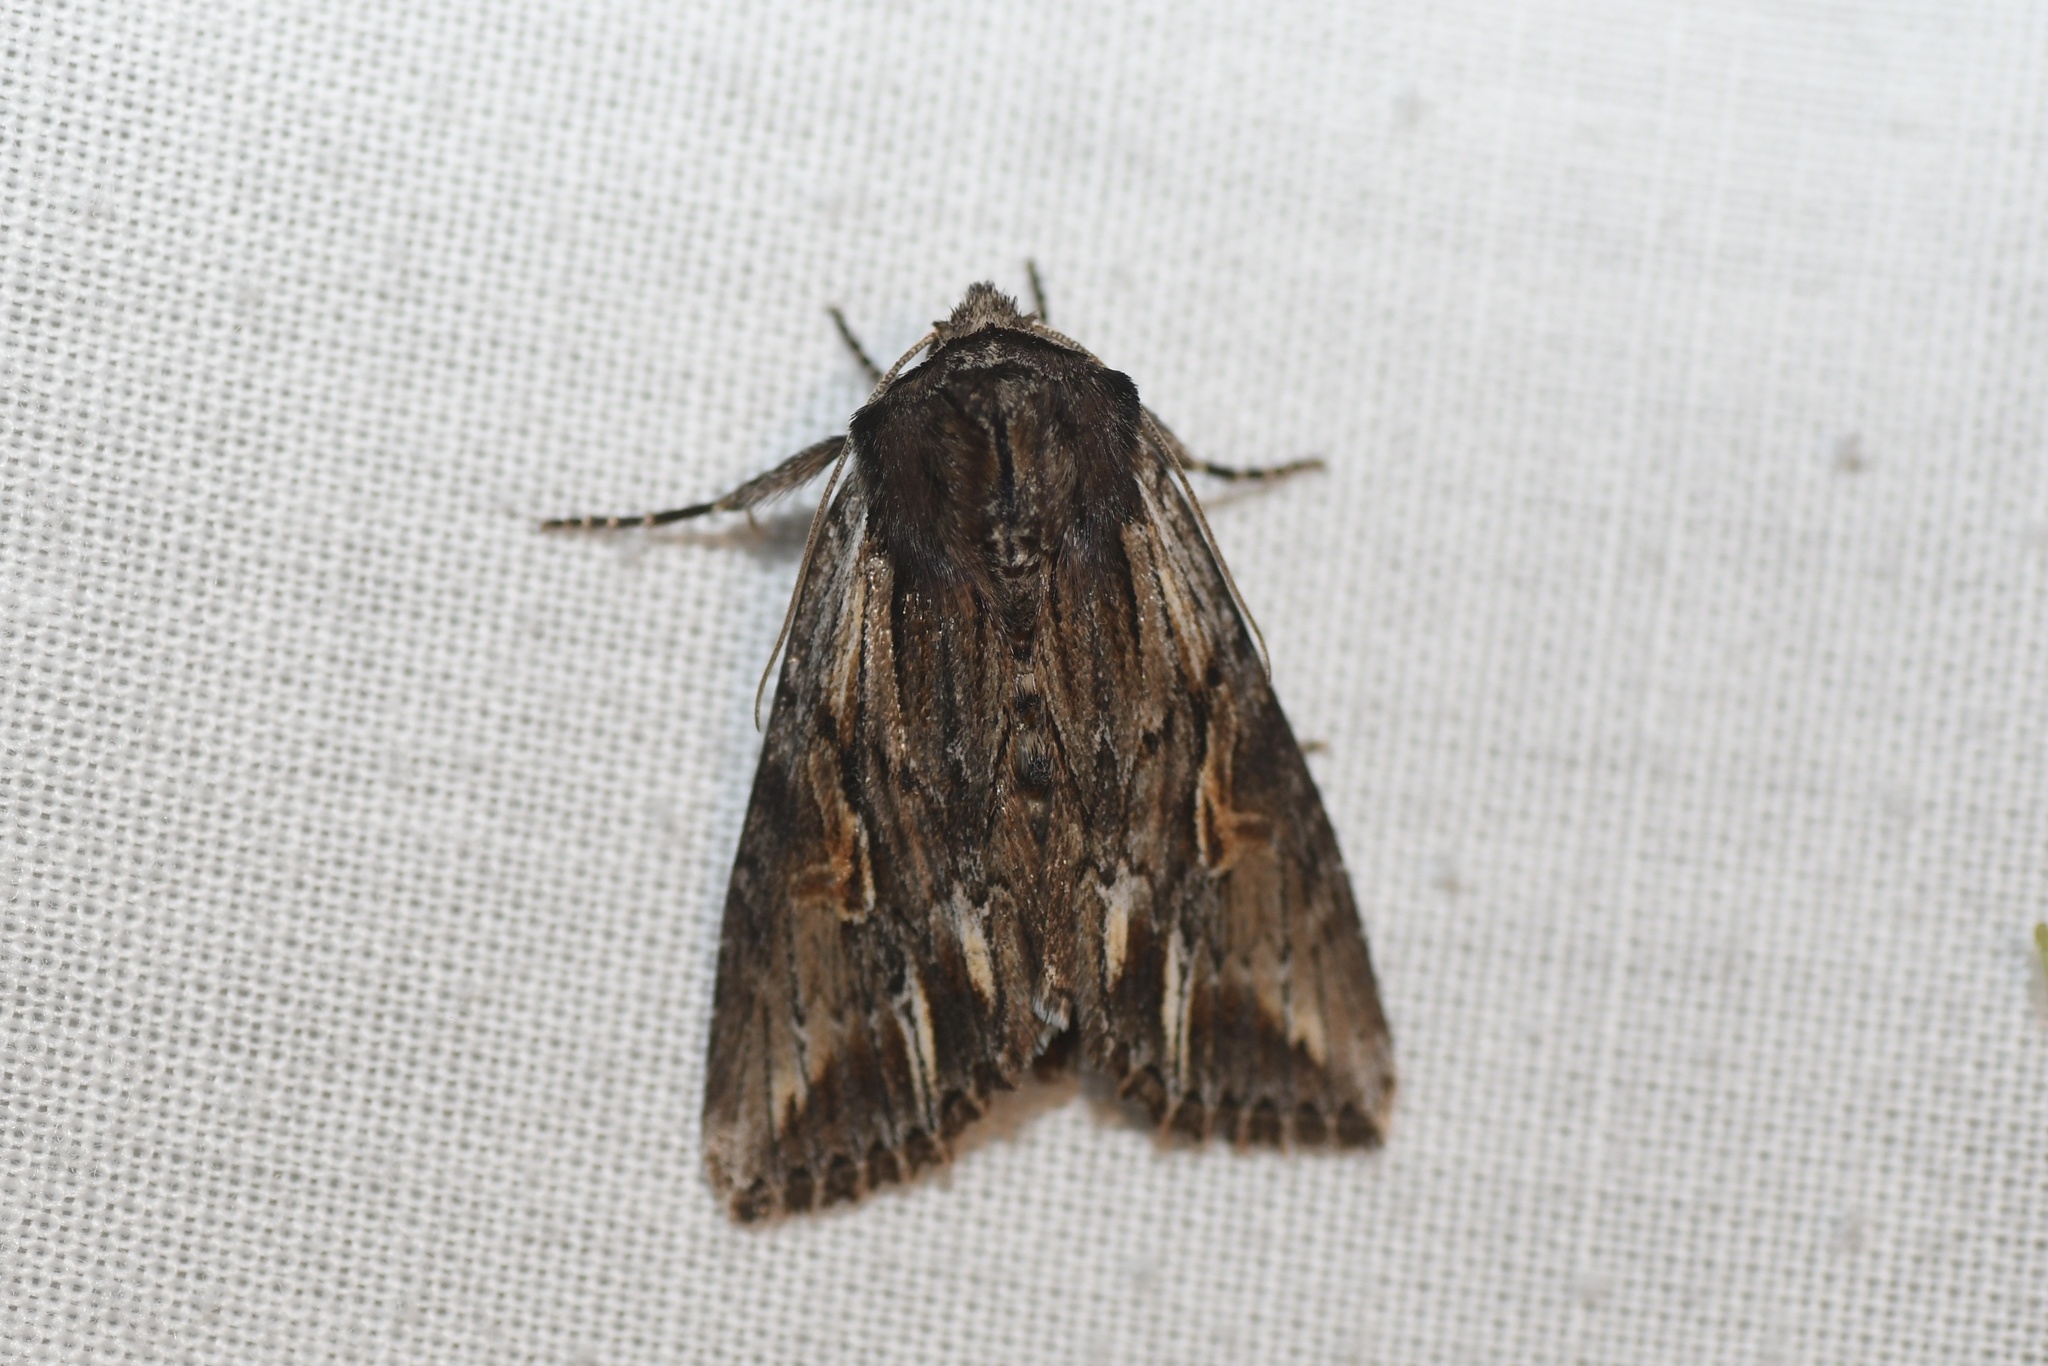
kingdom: Animalia
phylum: Arthropoda
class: Insecta
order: Lepidoptera
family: Noctuidae
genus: Achatia
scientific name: Achatia evicta
